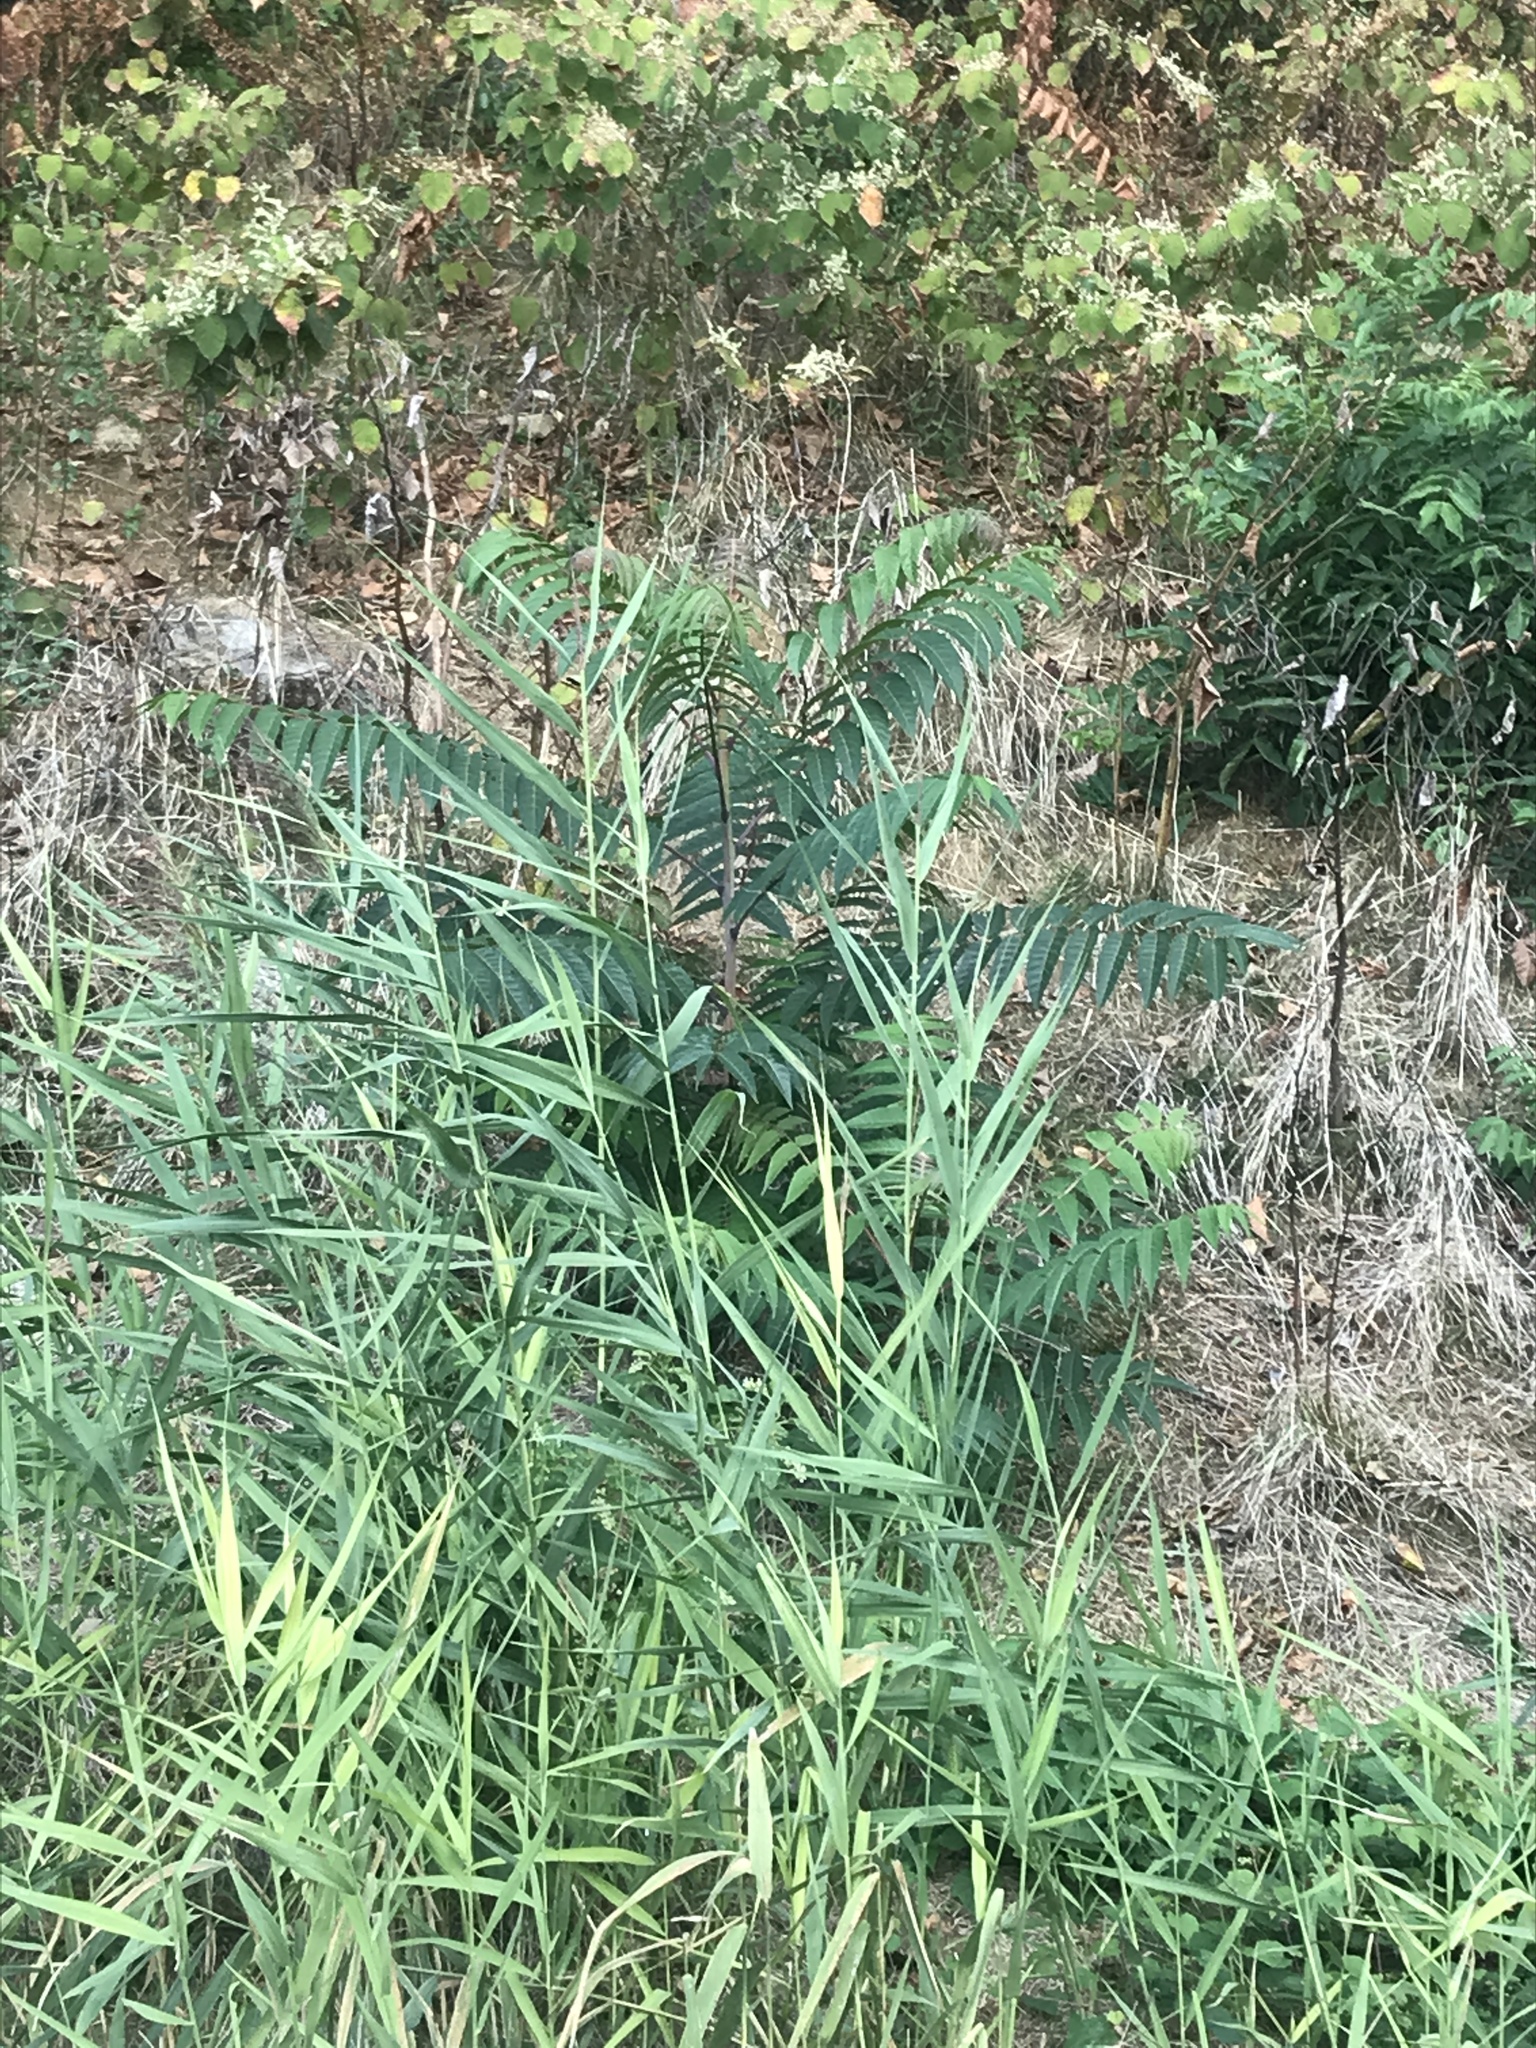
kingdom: Plantae
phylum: Tracheophyta
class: Magnoliopsida
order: Sapindales
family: Simaroubaceae
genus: Ailanthus
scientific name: Ailanthus altissima
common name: Tree-of-heaven
